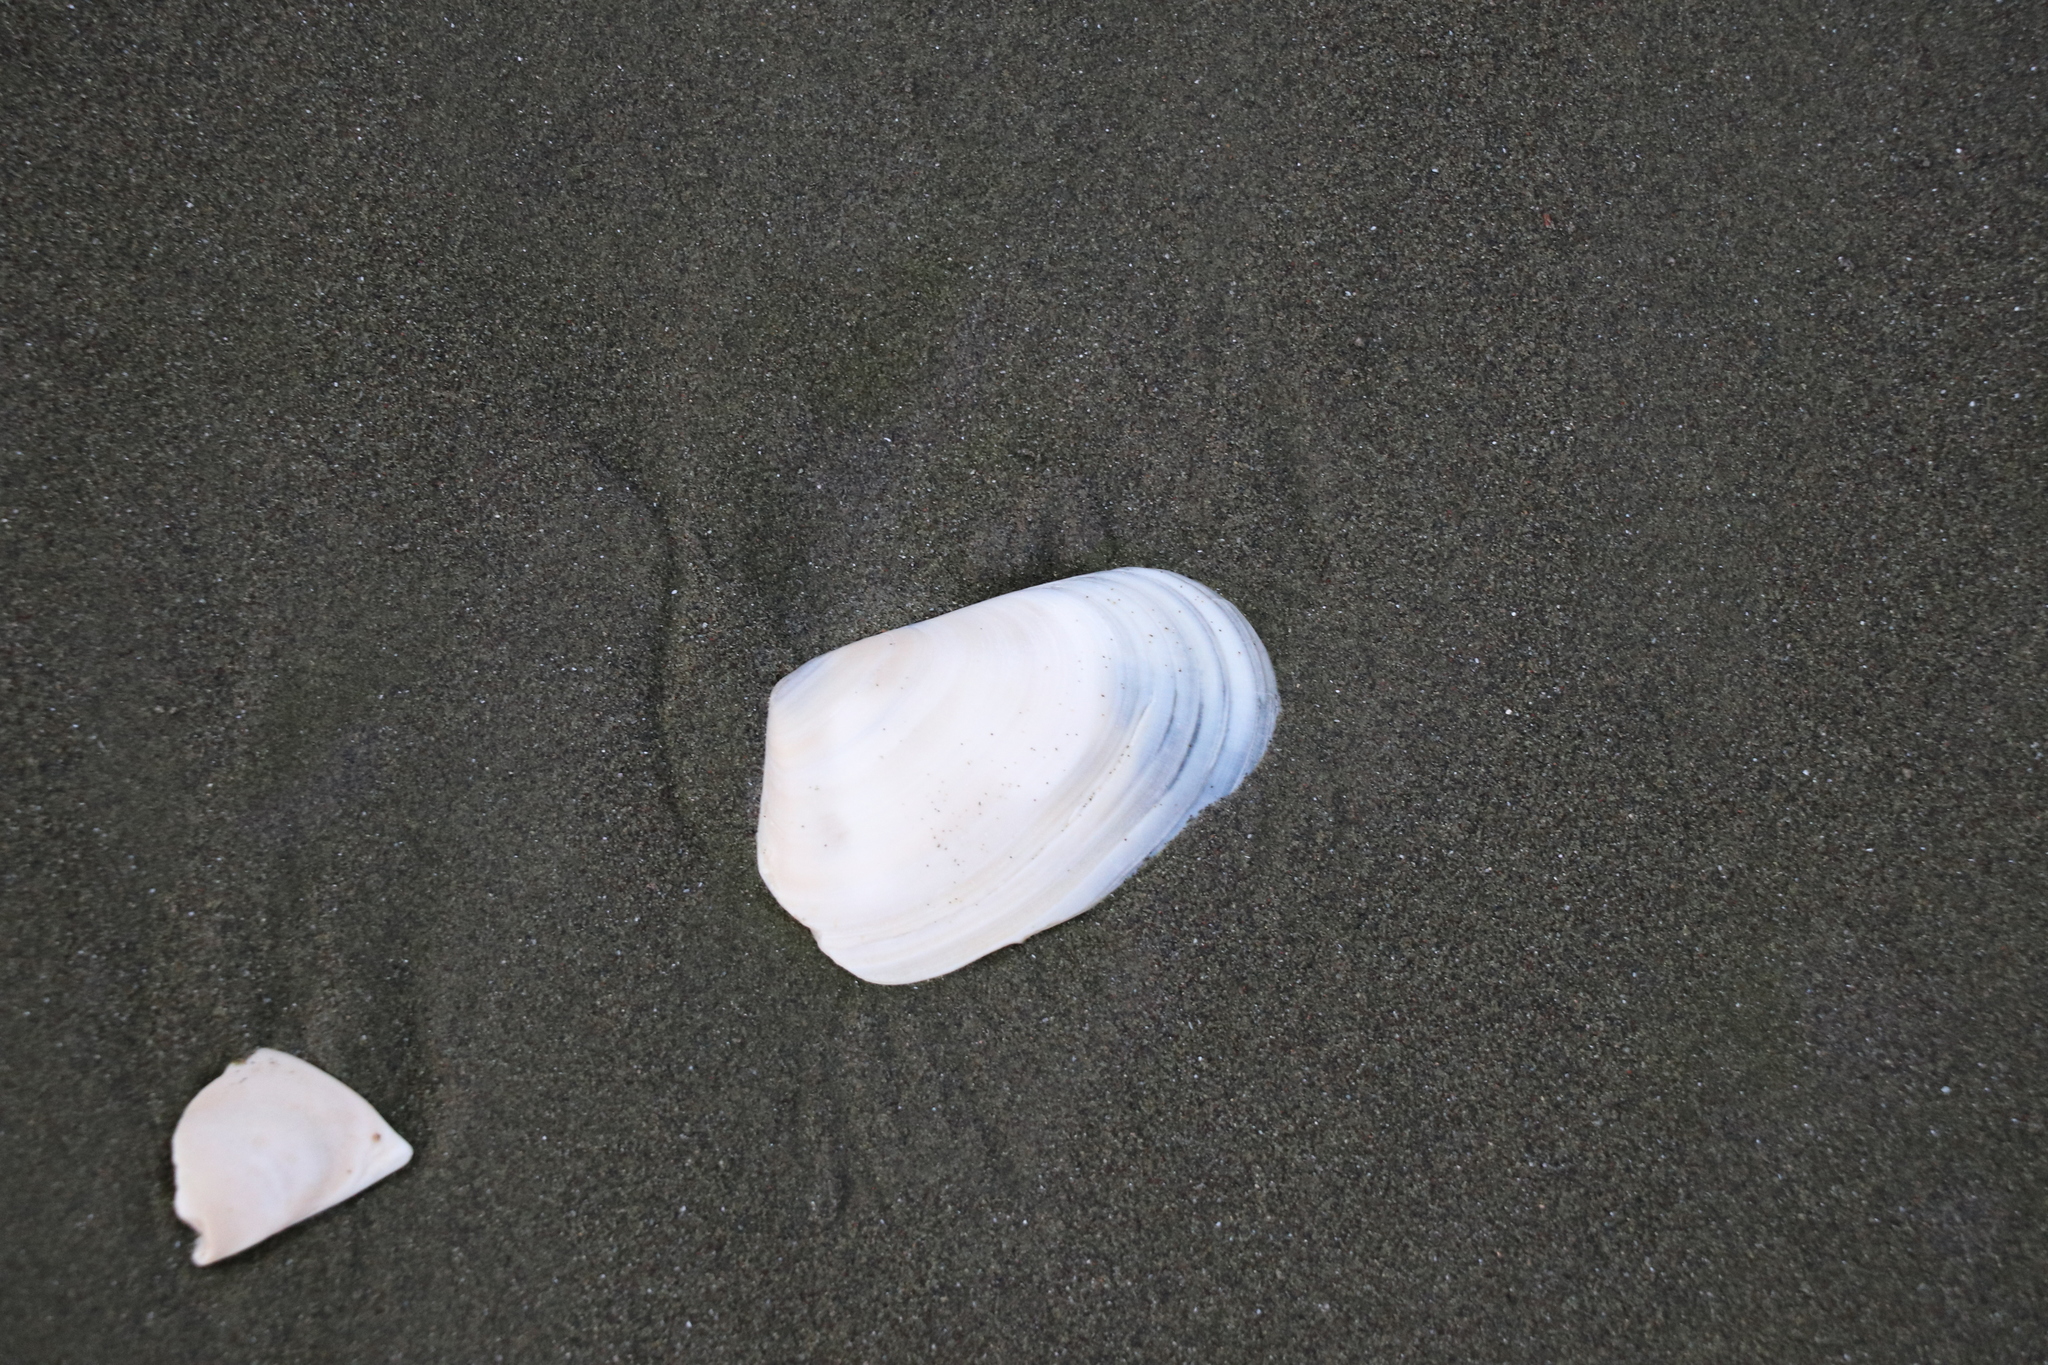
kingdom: Animalia
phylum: Mollusca
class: Bivalvia
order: Venerida
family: Mesodesmatidae
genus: Paphies
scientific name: Paphies subtriangulata
